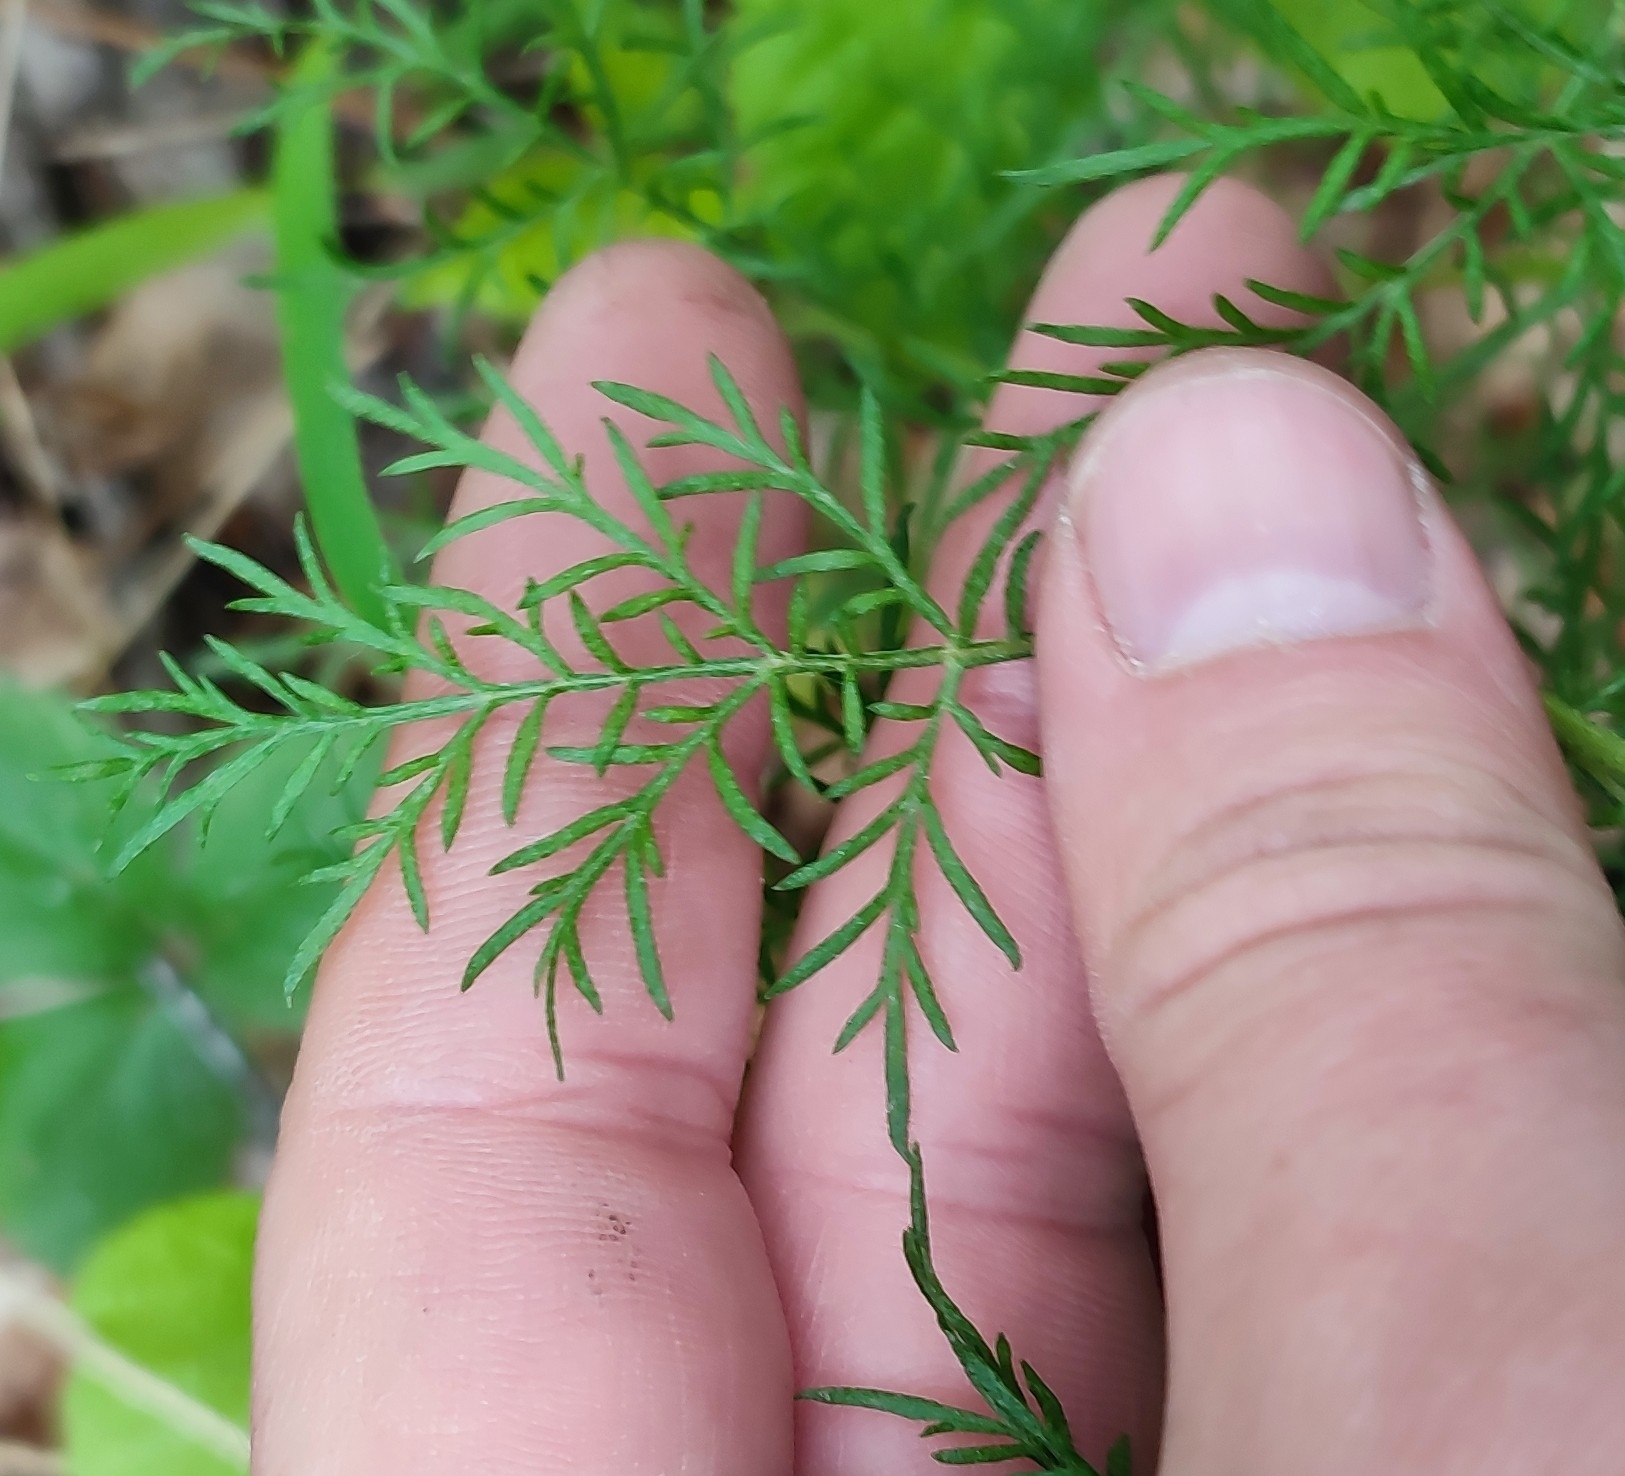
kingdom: Plantae
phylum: Tracheophyta
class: Magnoliopsida
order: Asterales
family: Asteraceae
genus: Artemisia
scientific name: Artemisia macrantha
